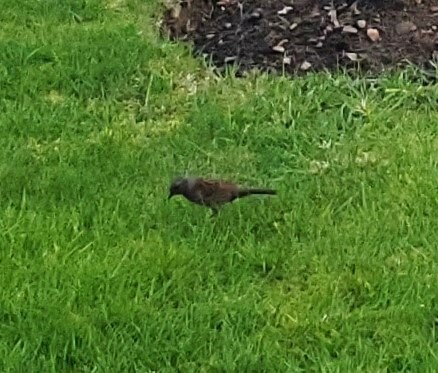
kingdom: Animalia
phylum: Chordata
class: Aves
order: Passeriformes
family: Prunellidae
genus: Prunella
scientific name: Prunella modularis
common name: Dunnock
